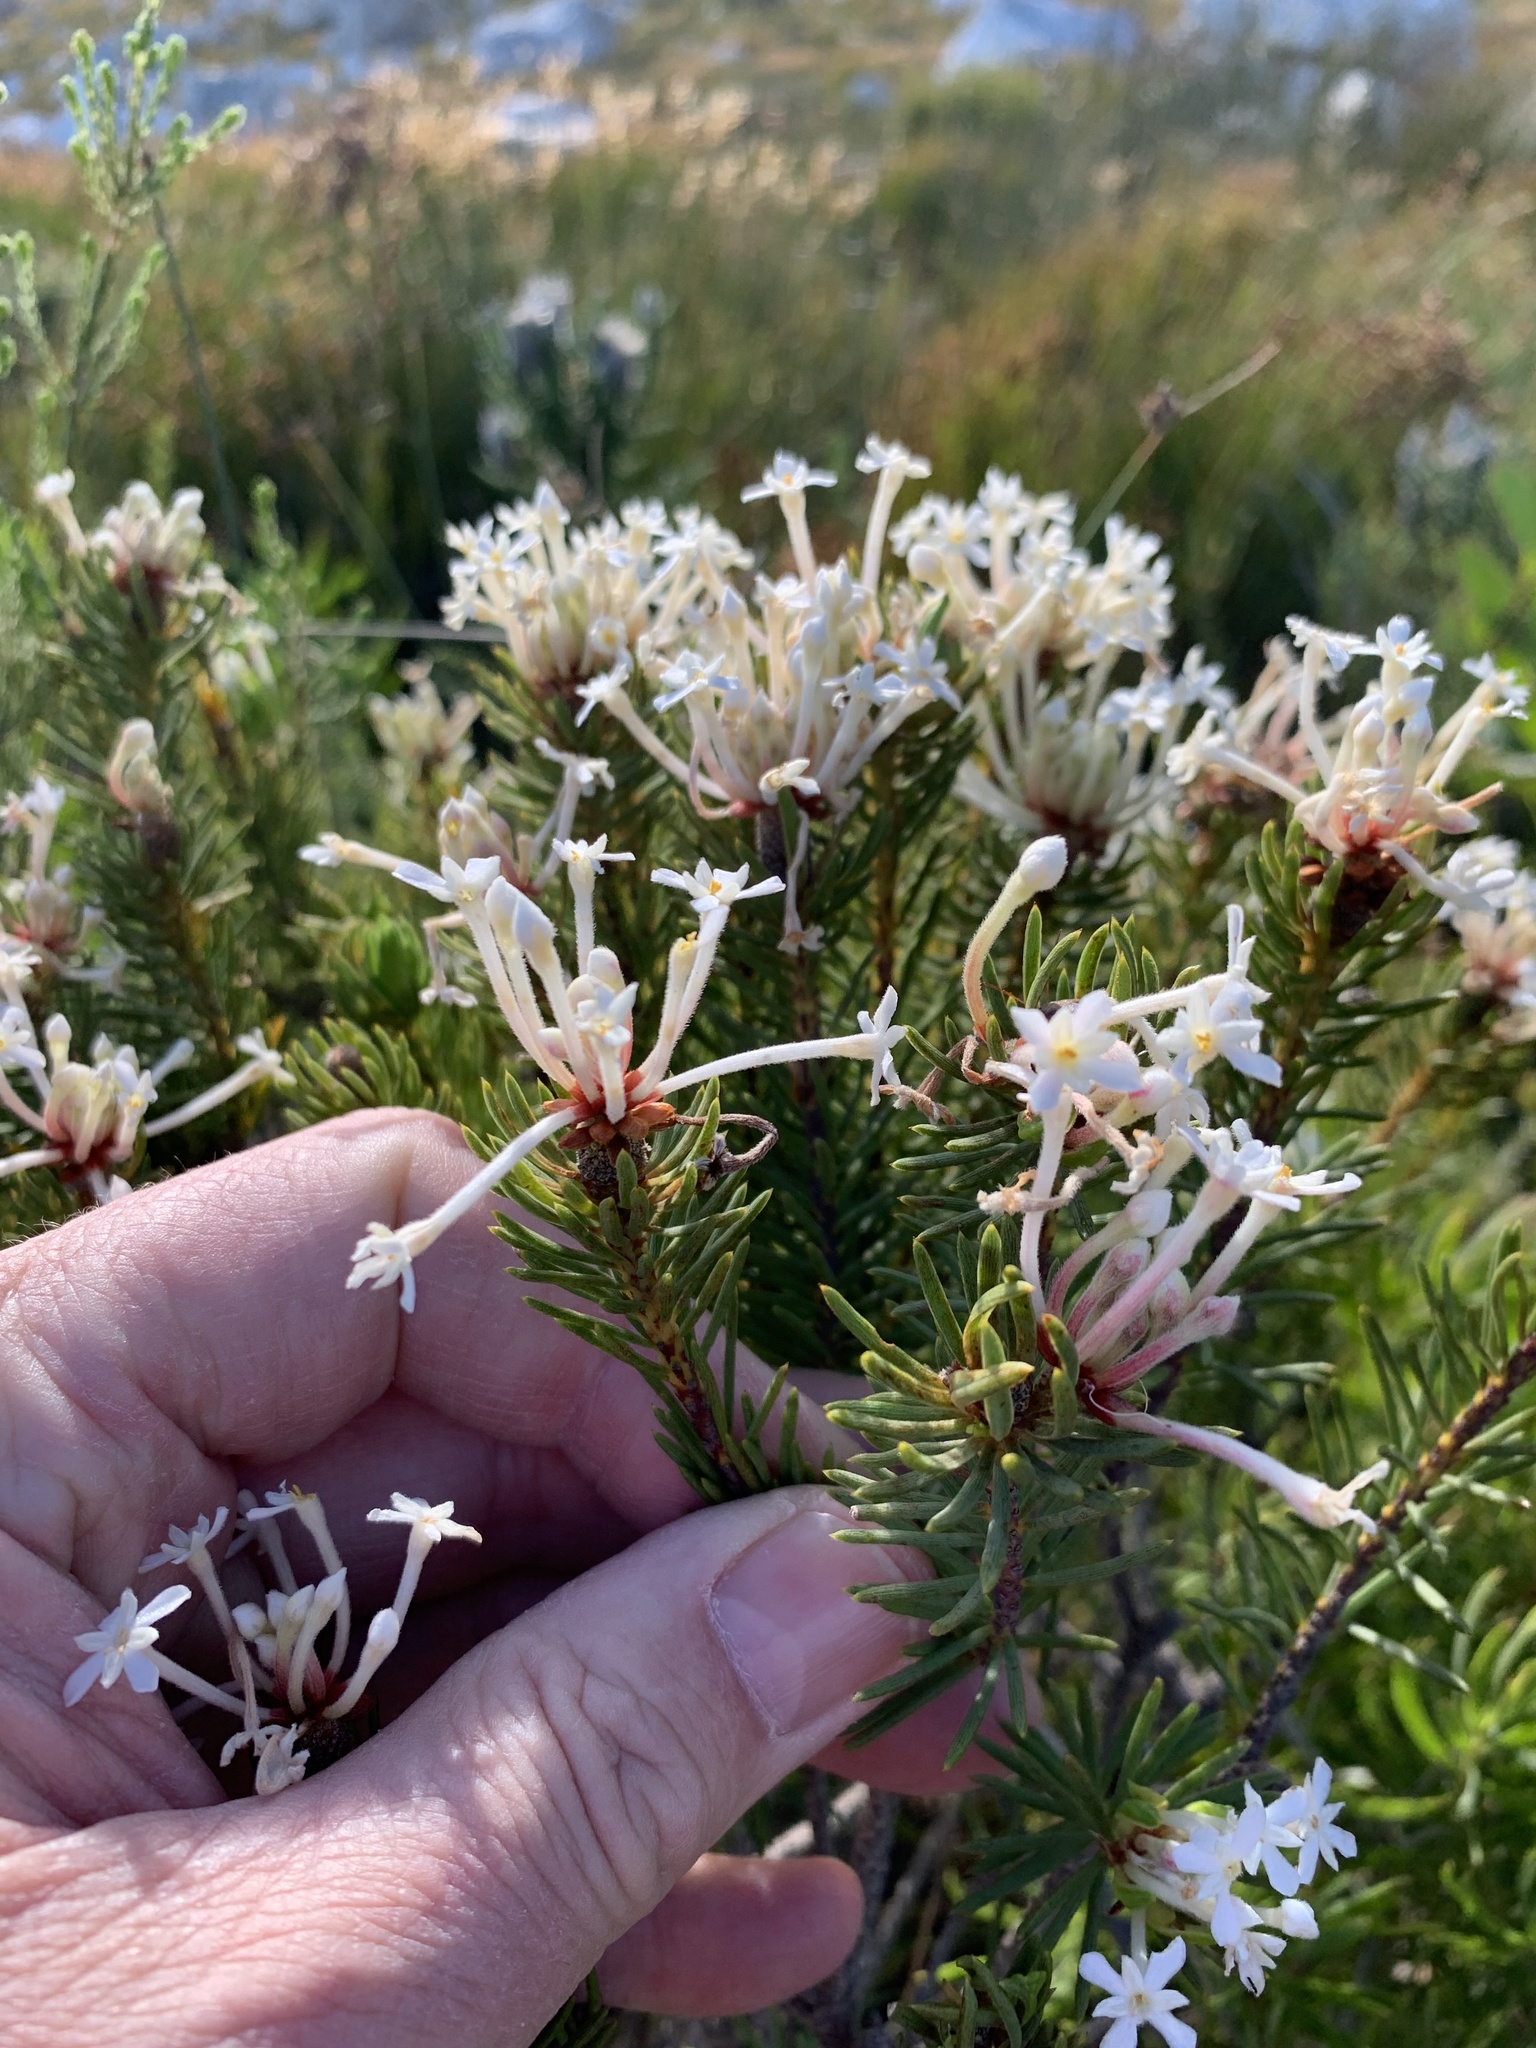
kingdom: Plantae
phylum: Tracheophyta
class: Magnoliopsida
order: Malvales
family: Thymelaeaceae
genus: Gnidia
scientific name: Gnidia pinifolia
